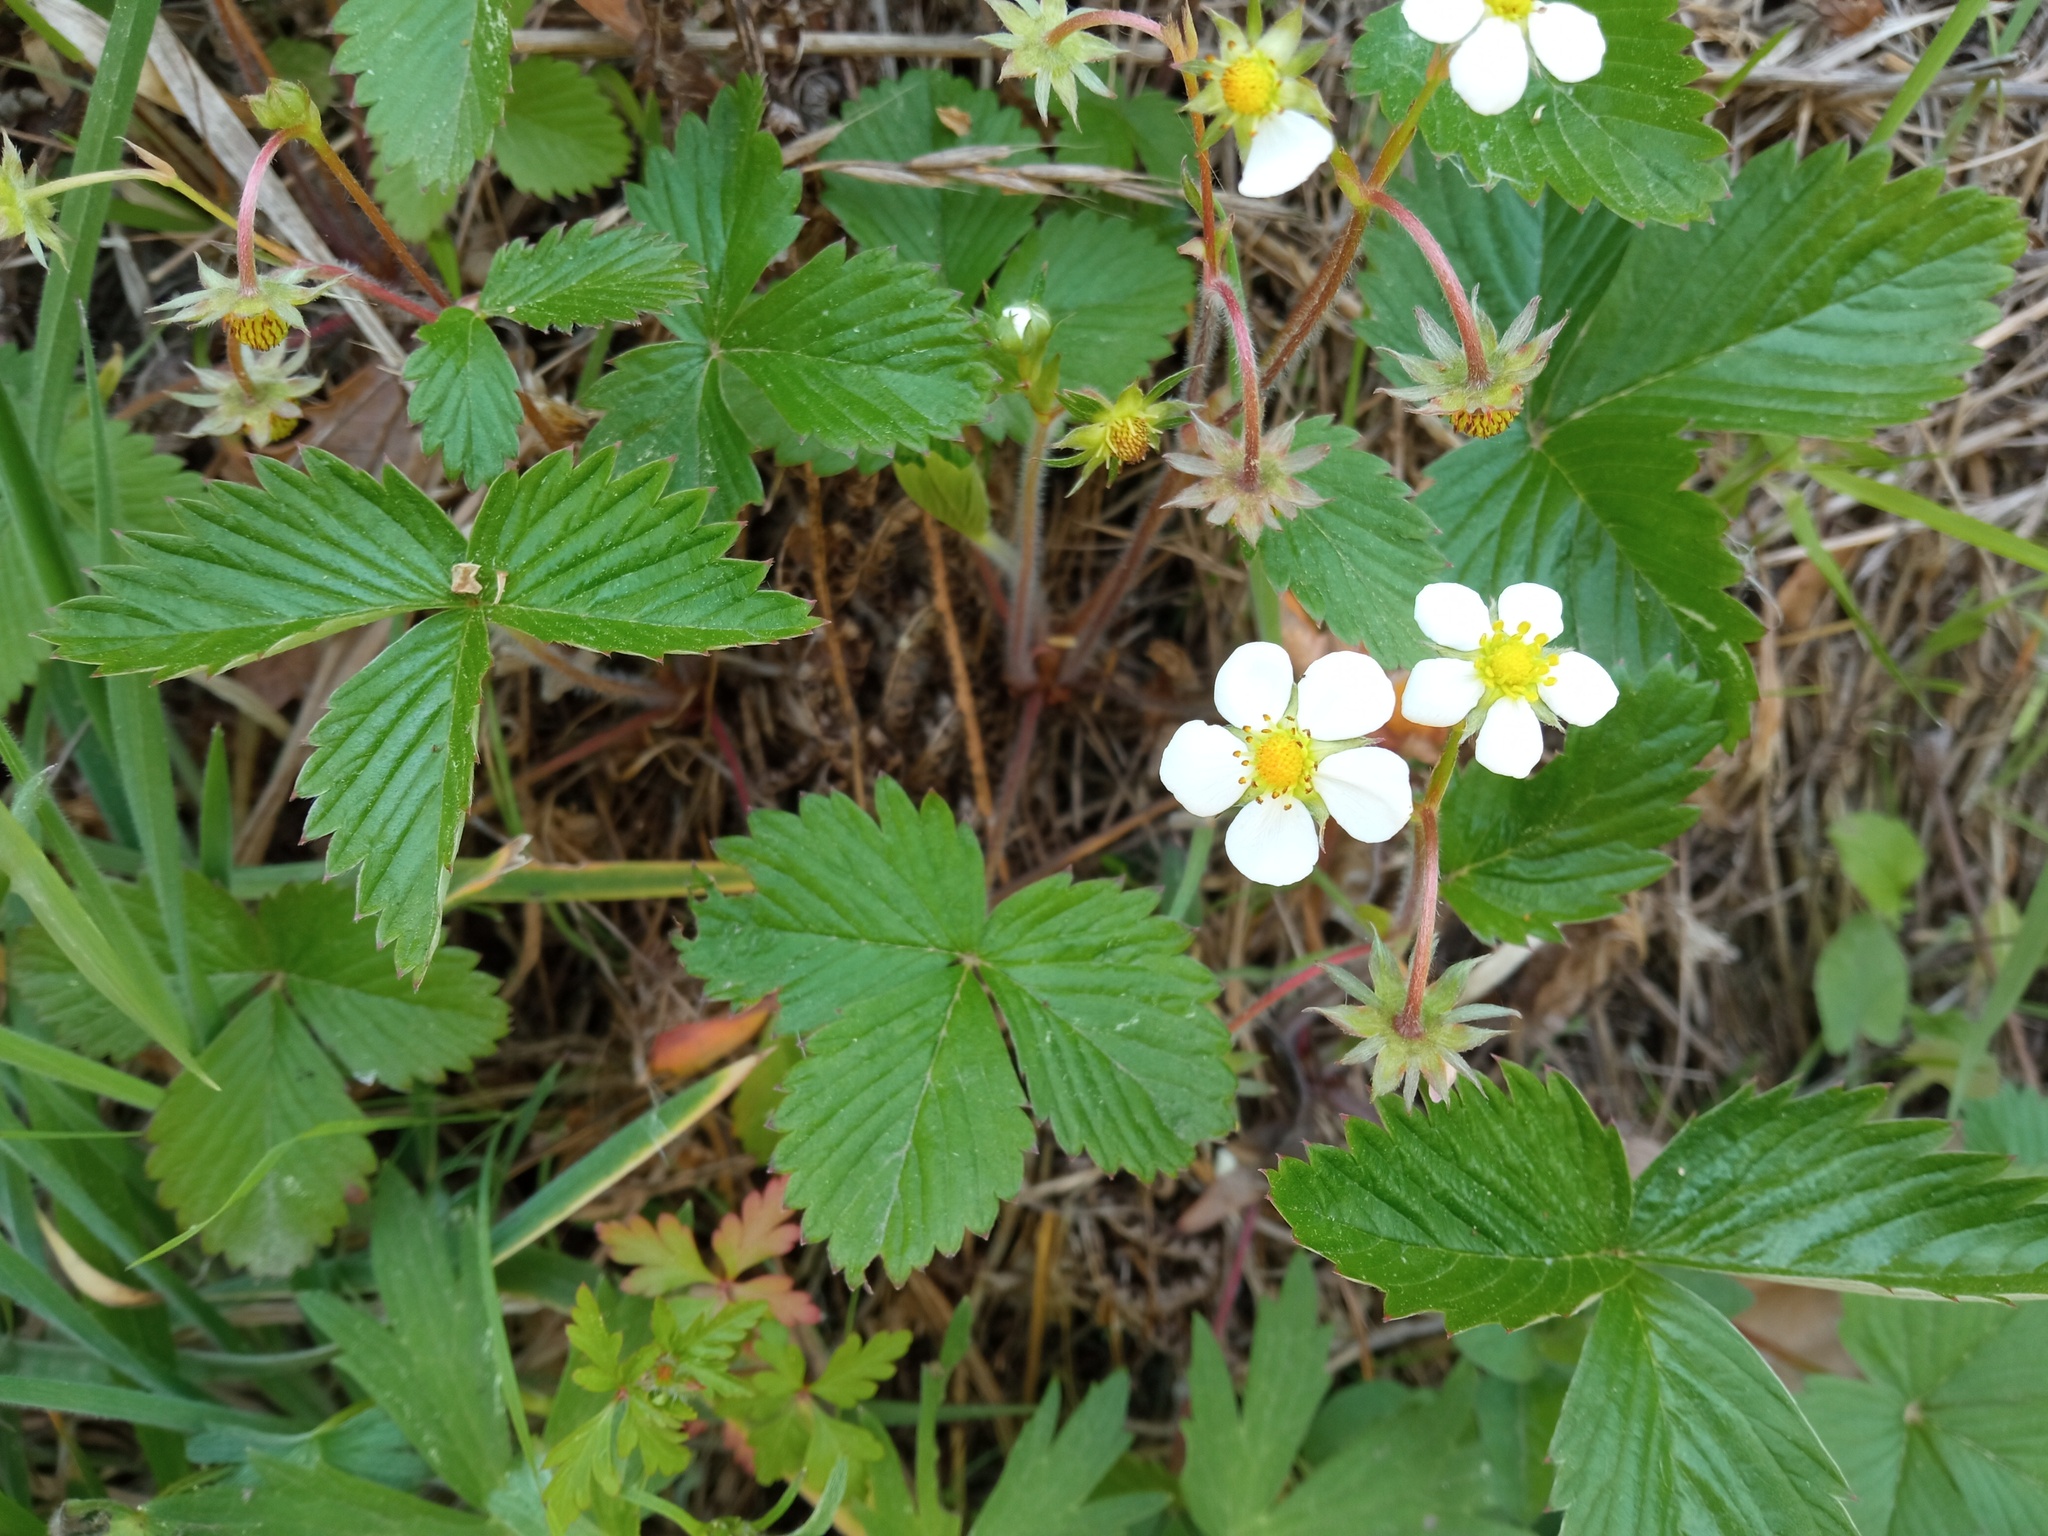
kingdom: Plantae
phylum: Tracheophyta
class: Magnoliopsida
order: Rosales
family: Rosaceae
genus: Fragaria
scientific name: Fragaria vesca
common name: Wild strawberry
